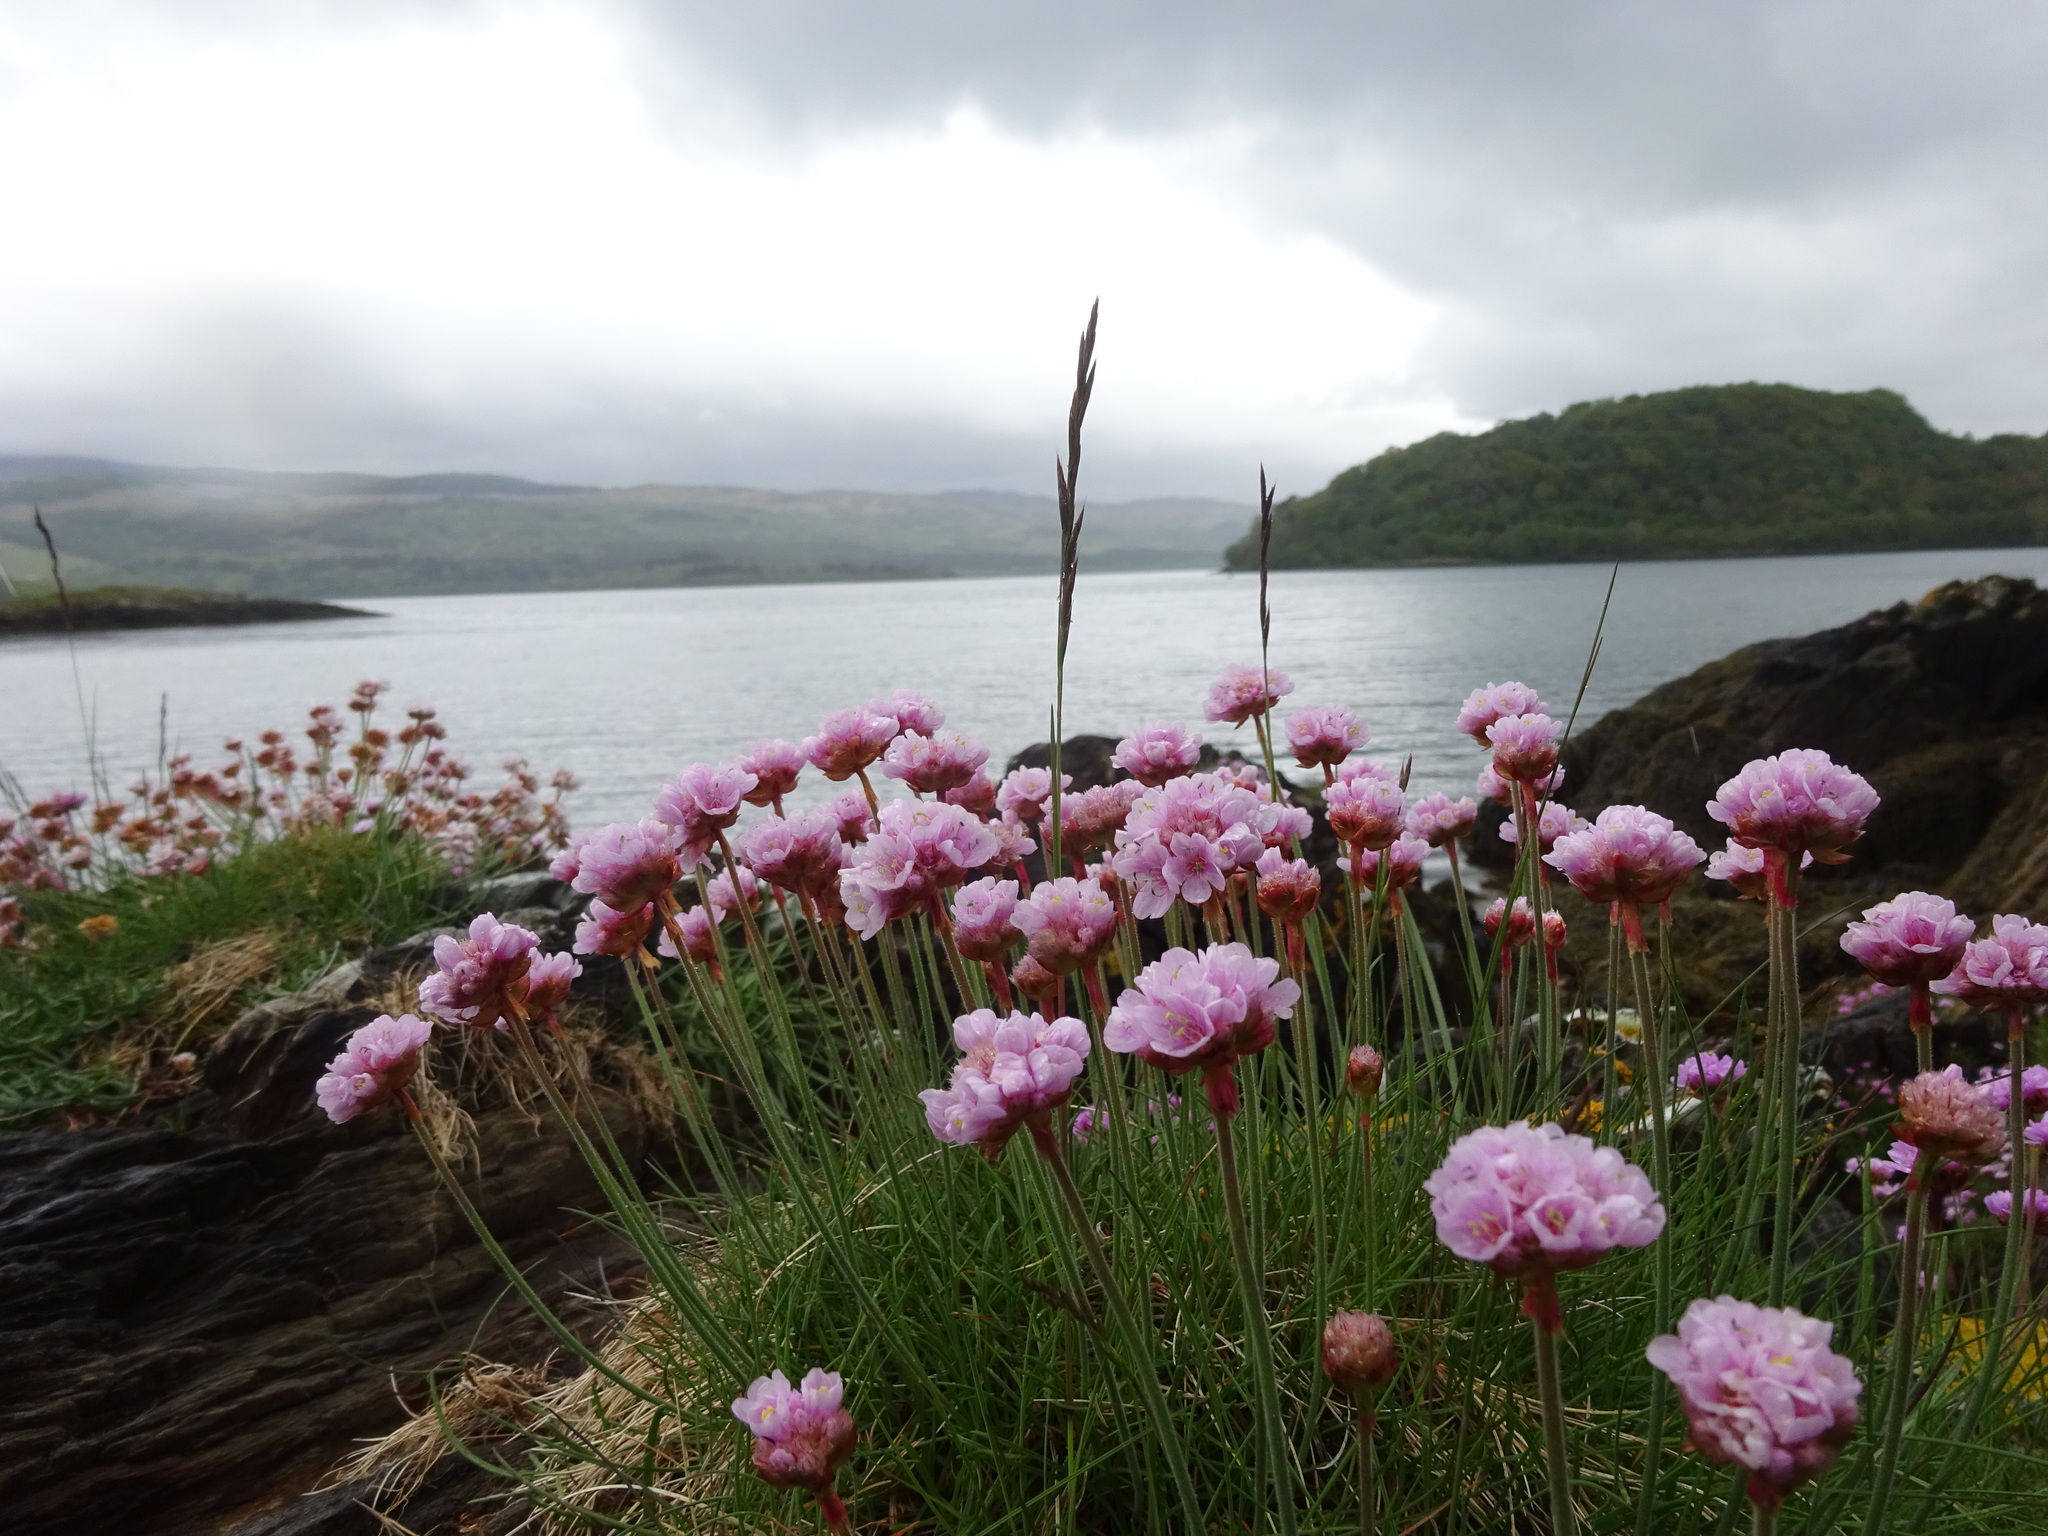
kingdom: Plantae
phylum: Tracheophyta
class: Magnoliopsida
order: Caryophyllales
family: Plumbaginaceae
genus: Armeria
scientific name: Armeria maritima
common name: Thrift
